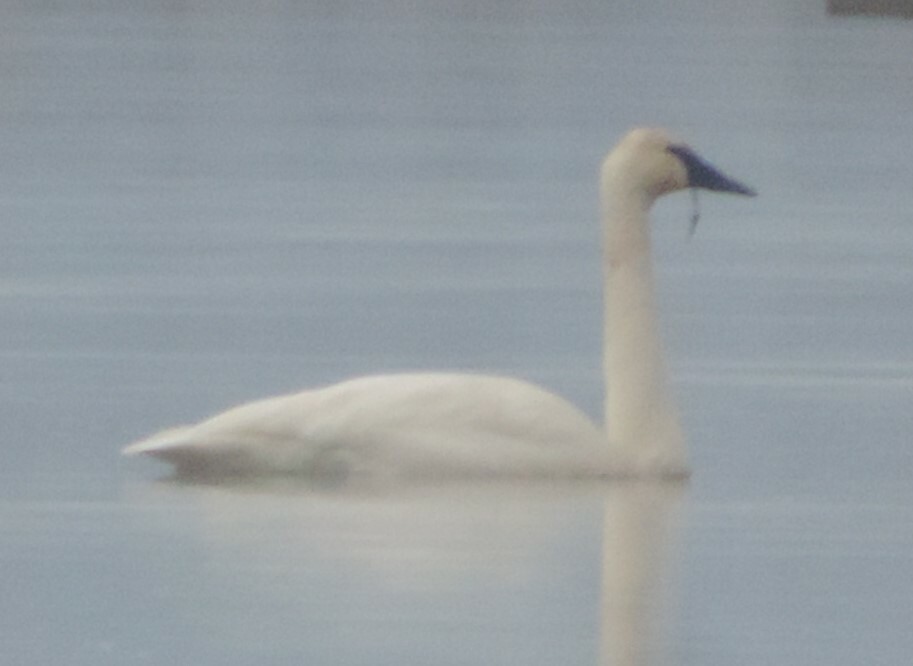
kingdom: Animalia
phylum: Chordata
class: Aves
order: Anseriformes
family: Anatidae
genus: Cygnus
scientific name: Cygnus buccinator
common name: Trumpeter swan
